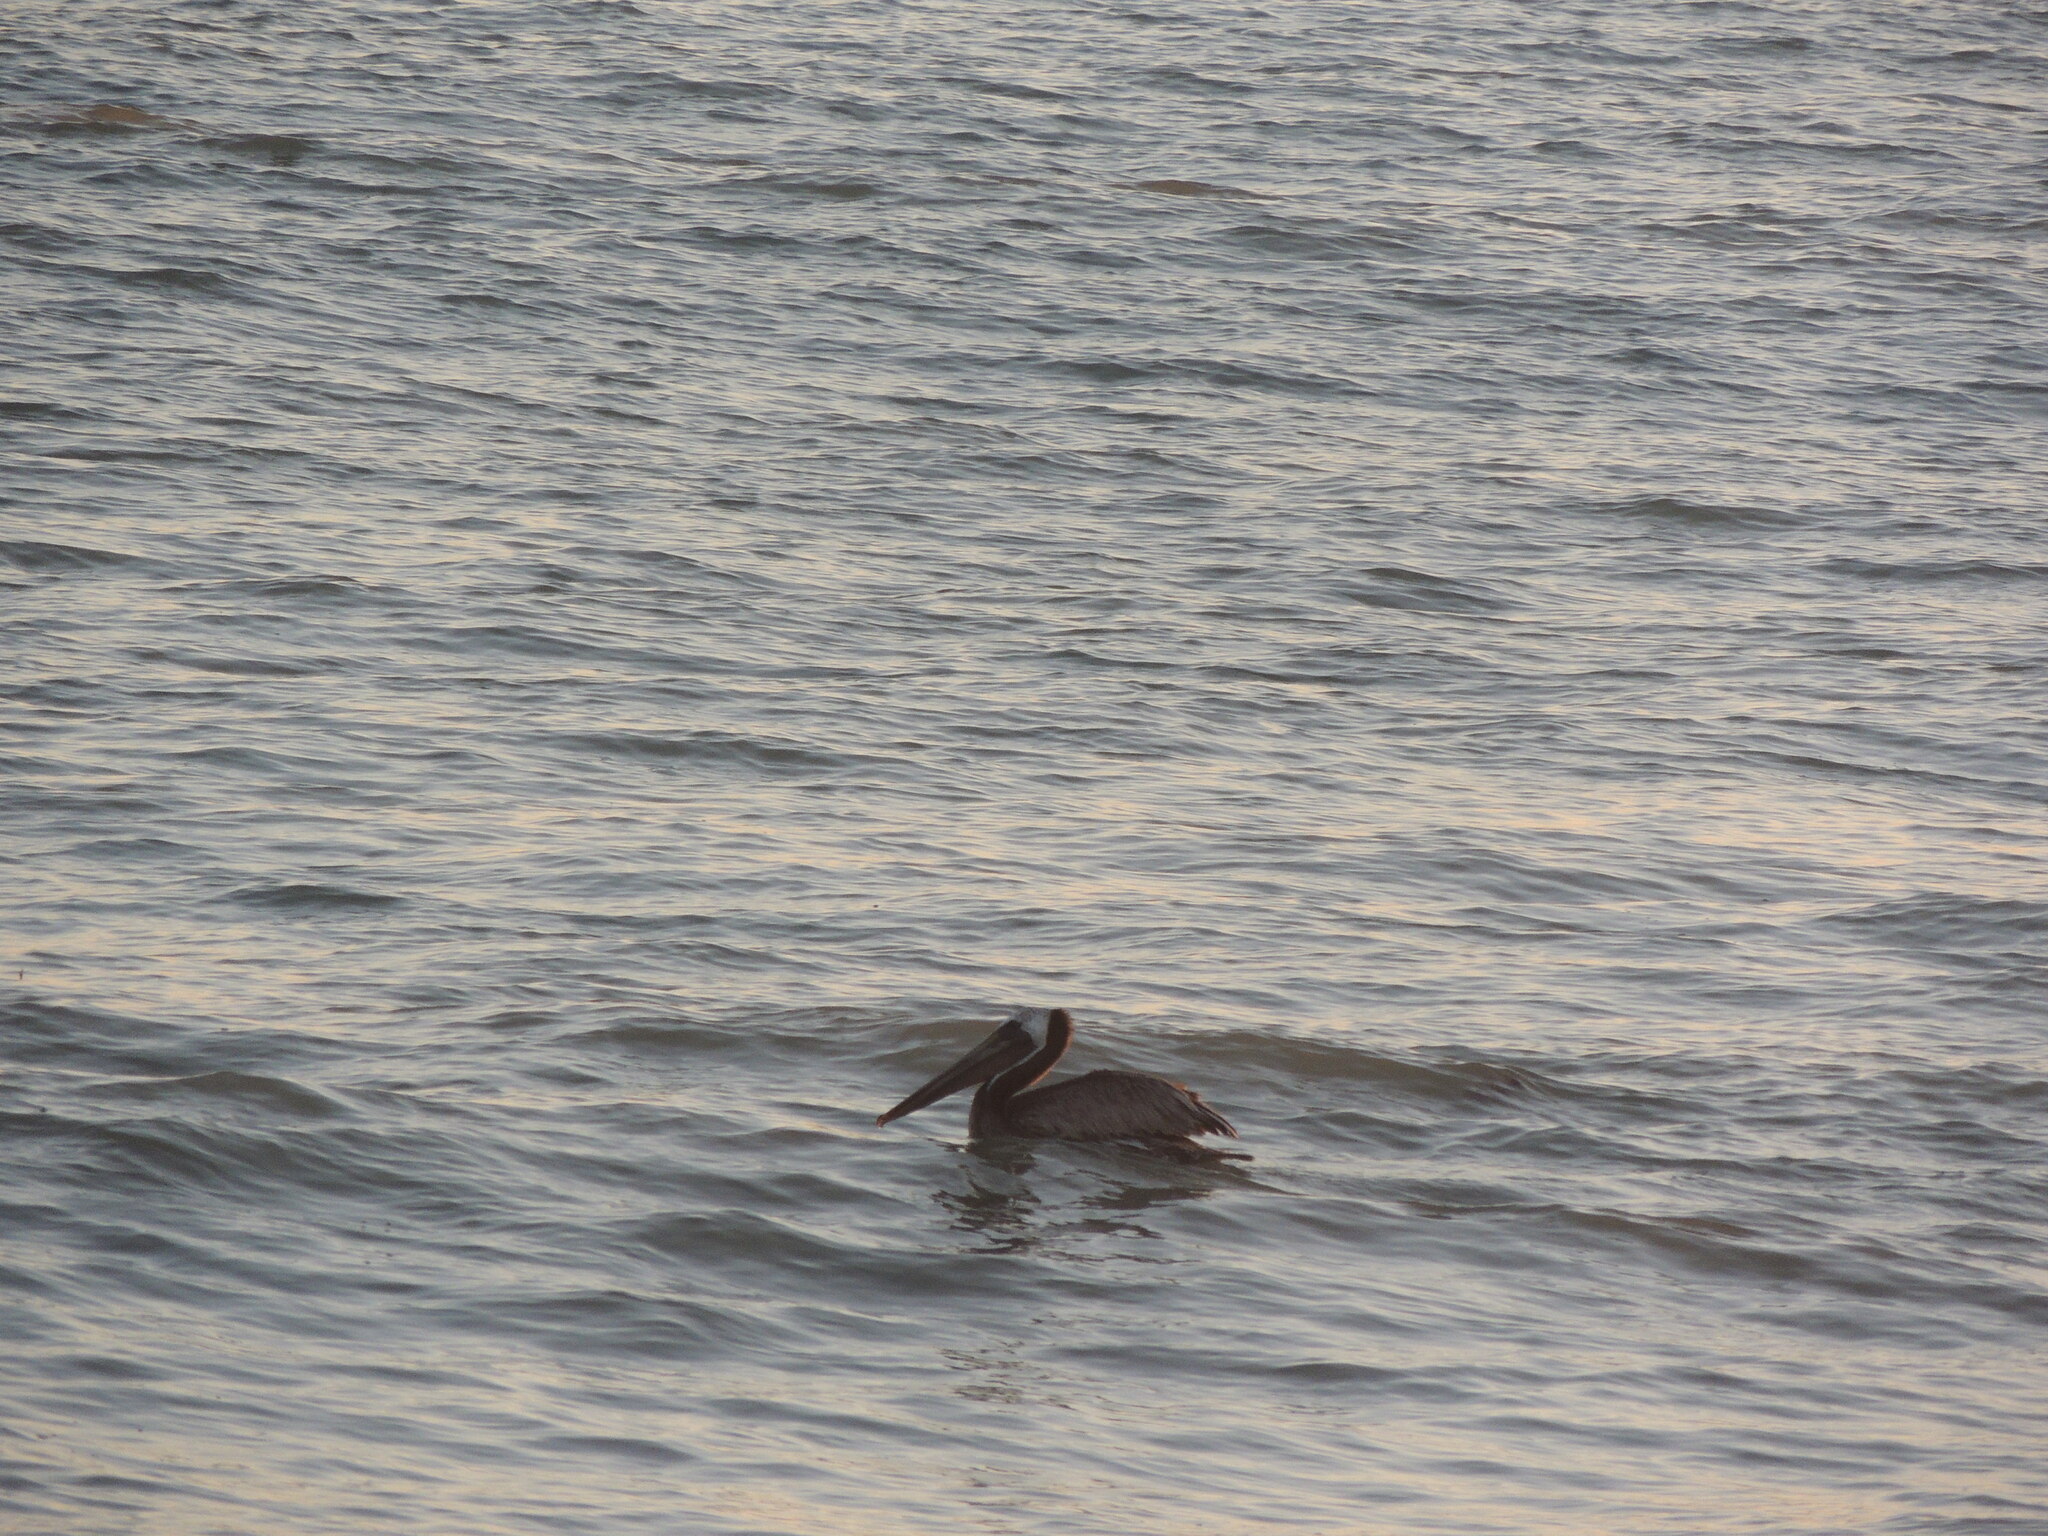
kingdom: Animalia
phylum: Chordata
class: Aves
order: Pelecaniformes
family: Pelecanidae
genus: Pelecanus
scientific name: Pelecanus occidentalis
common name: Brown pelican
